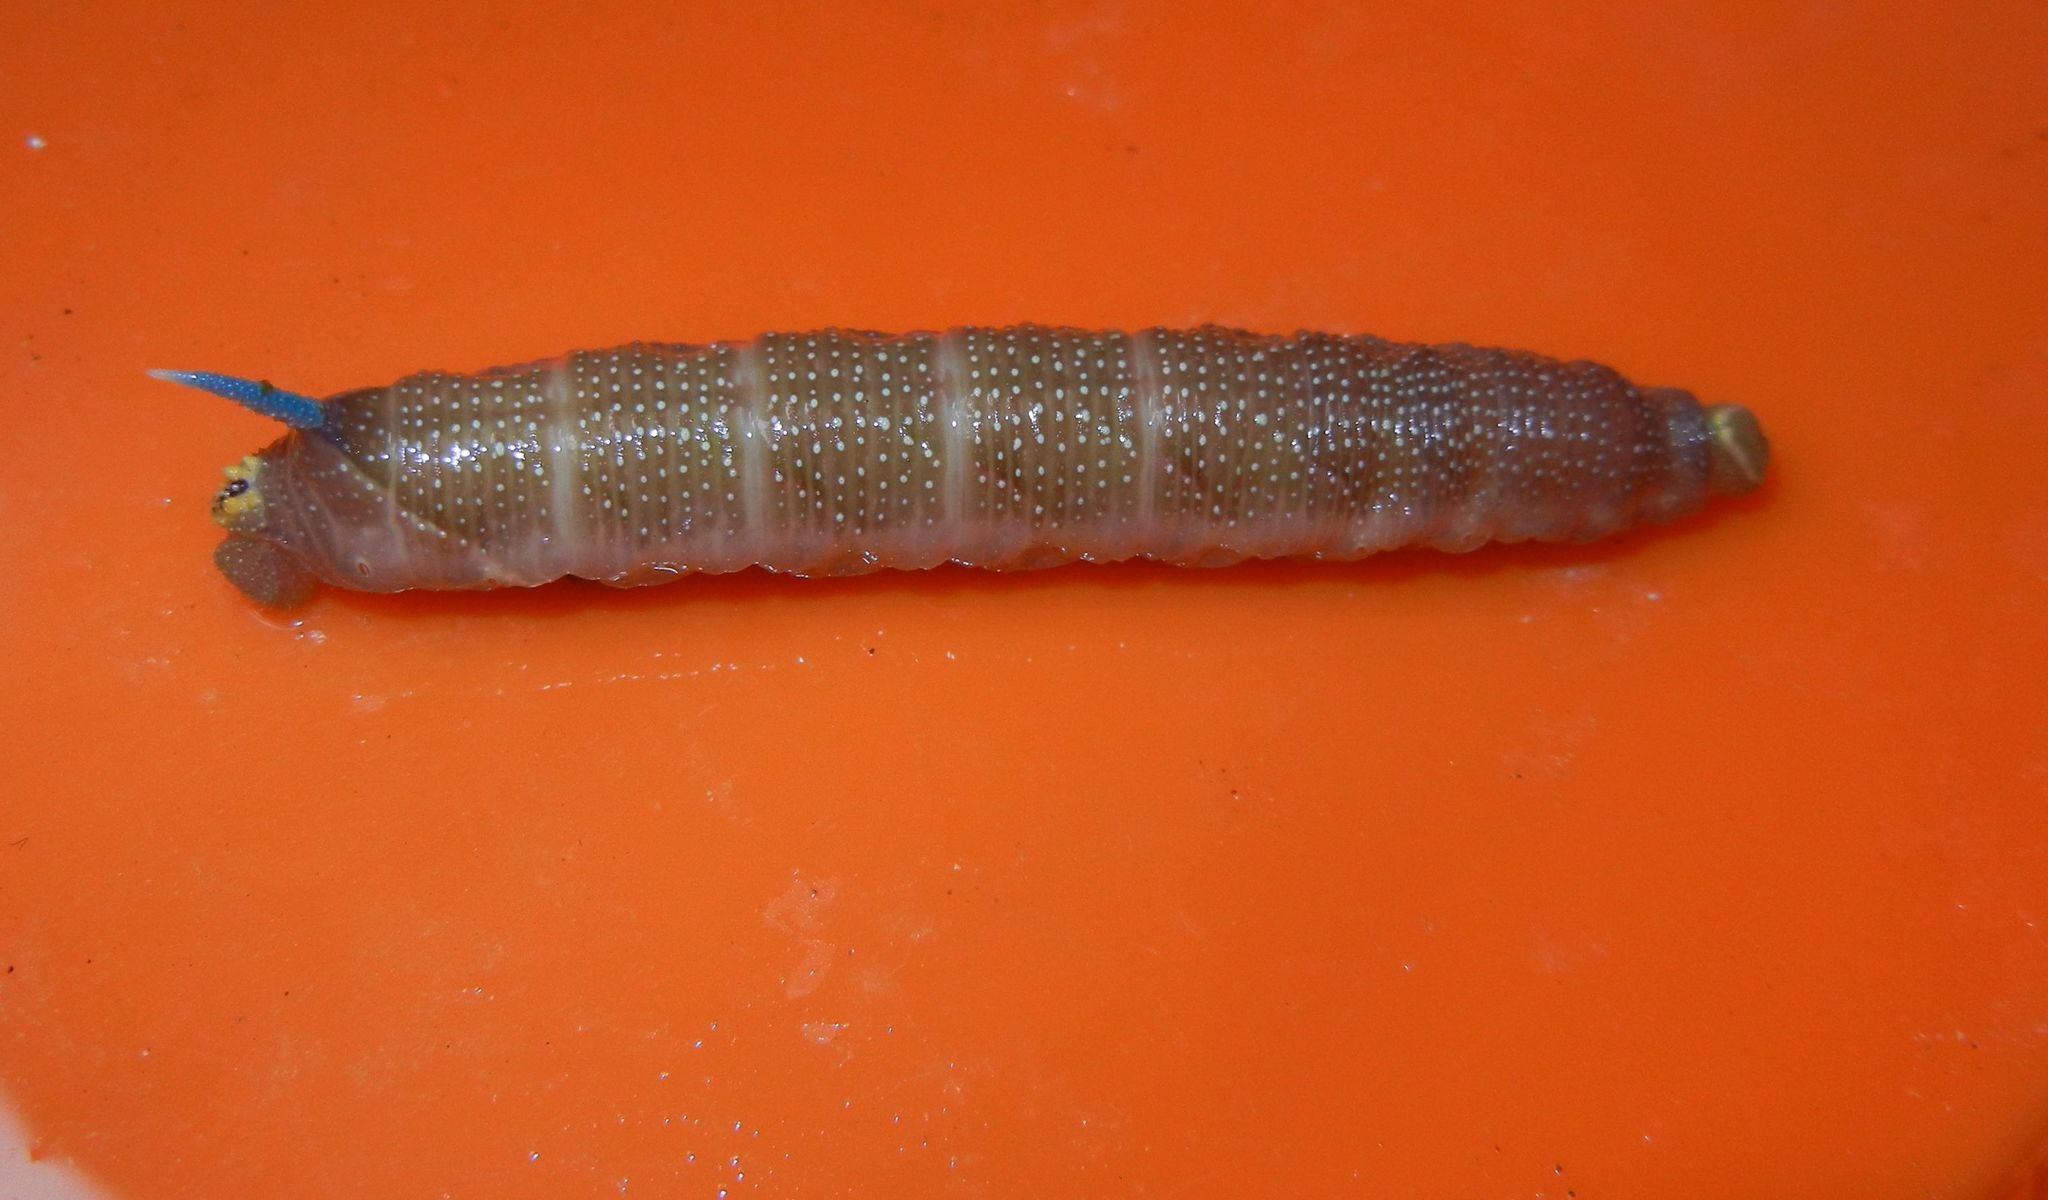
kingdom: Animalia
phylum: Arthropoda
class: Insecta
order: Lepidoptera
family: Sphingidae
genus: Mimas
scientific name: Mimas tiliae
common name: Lime hawk-moth
